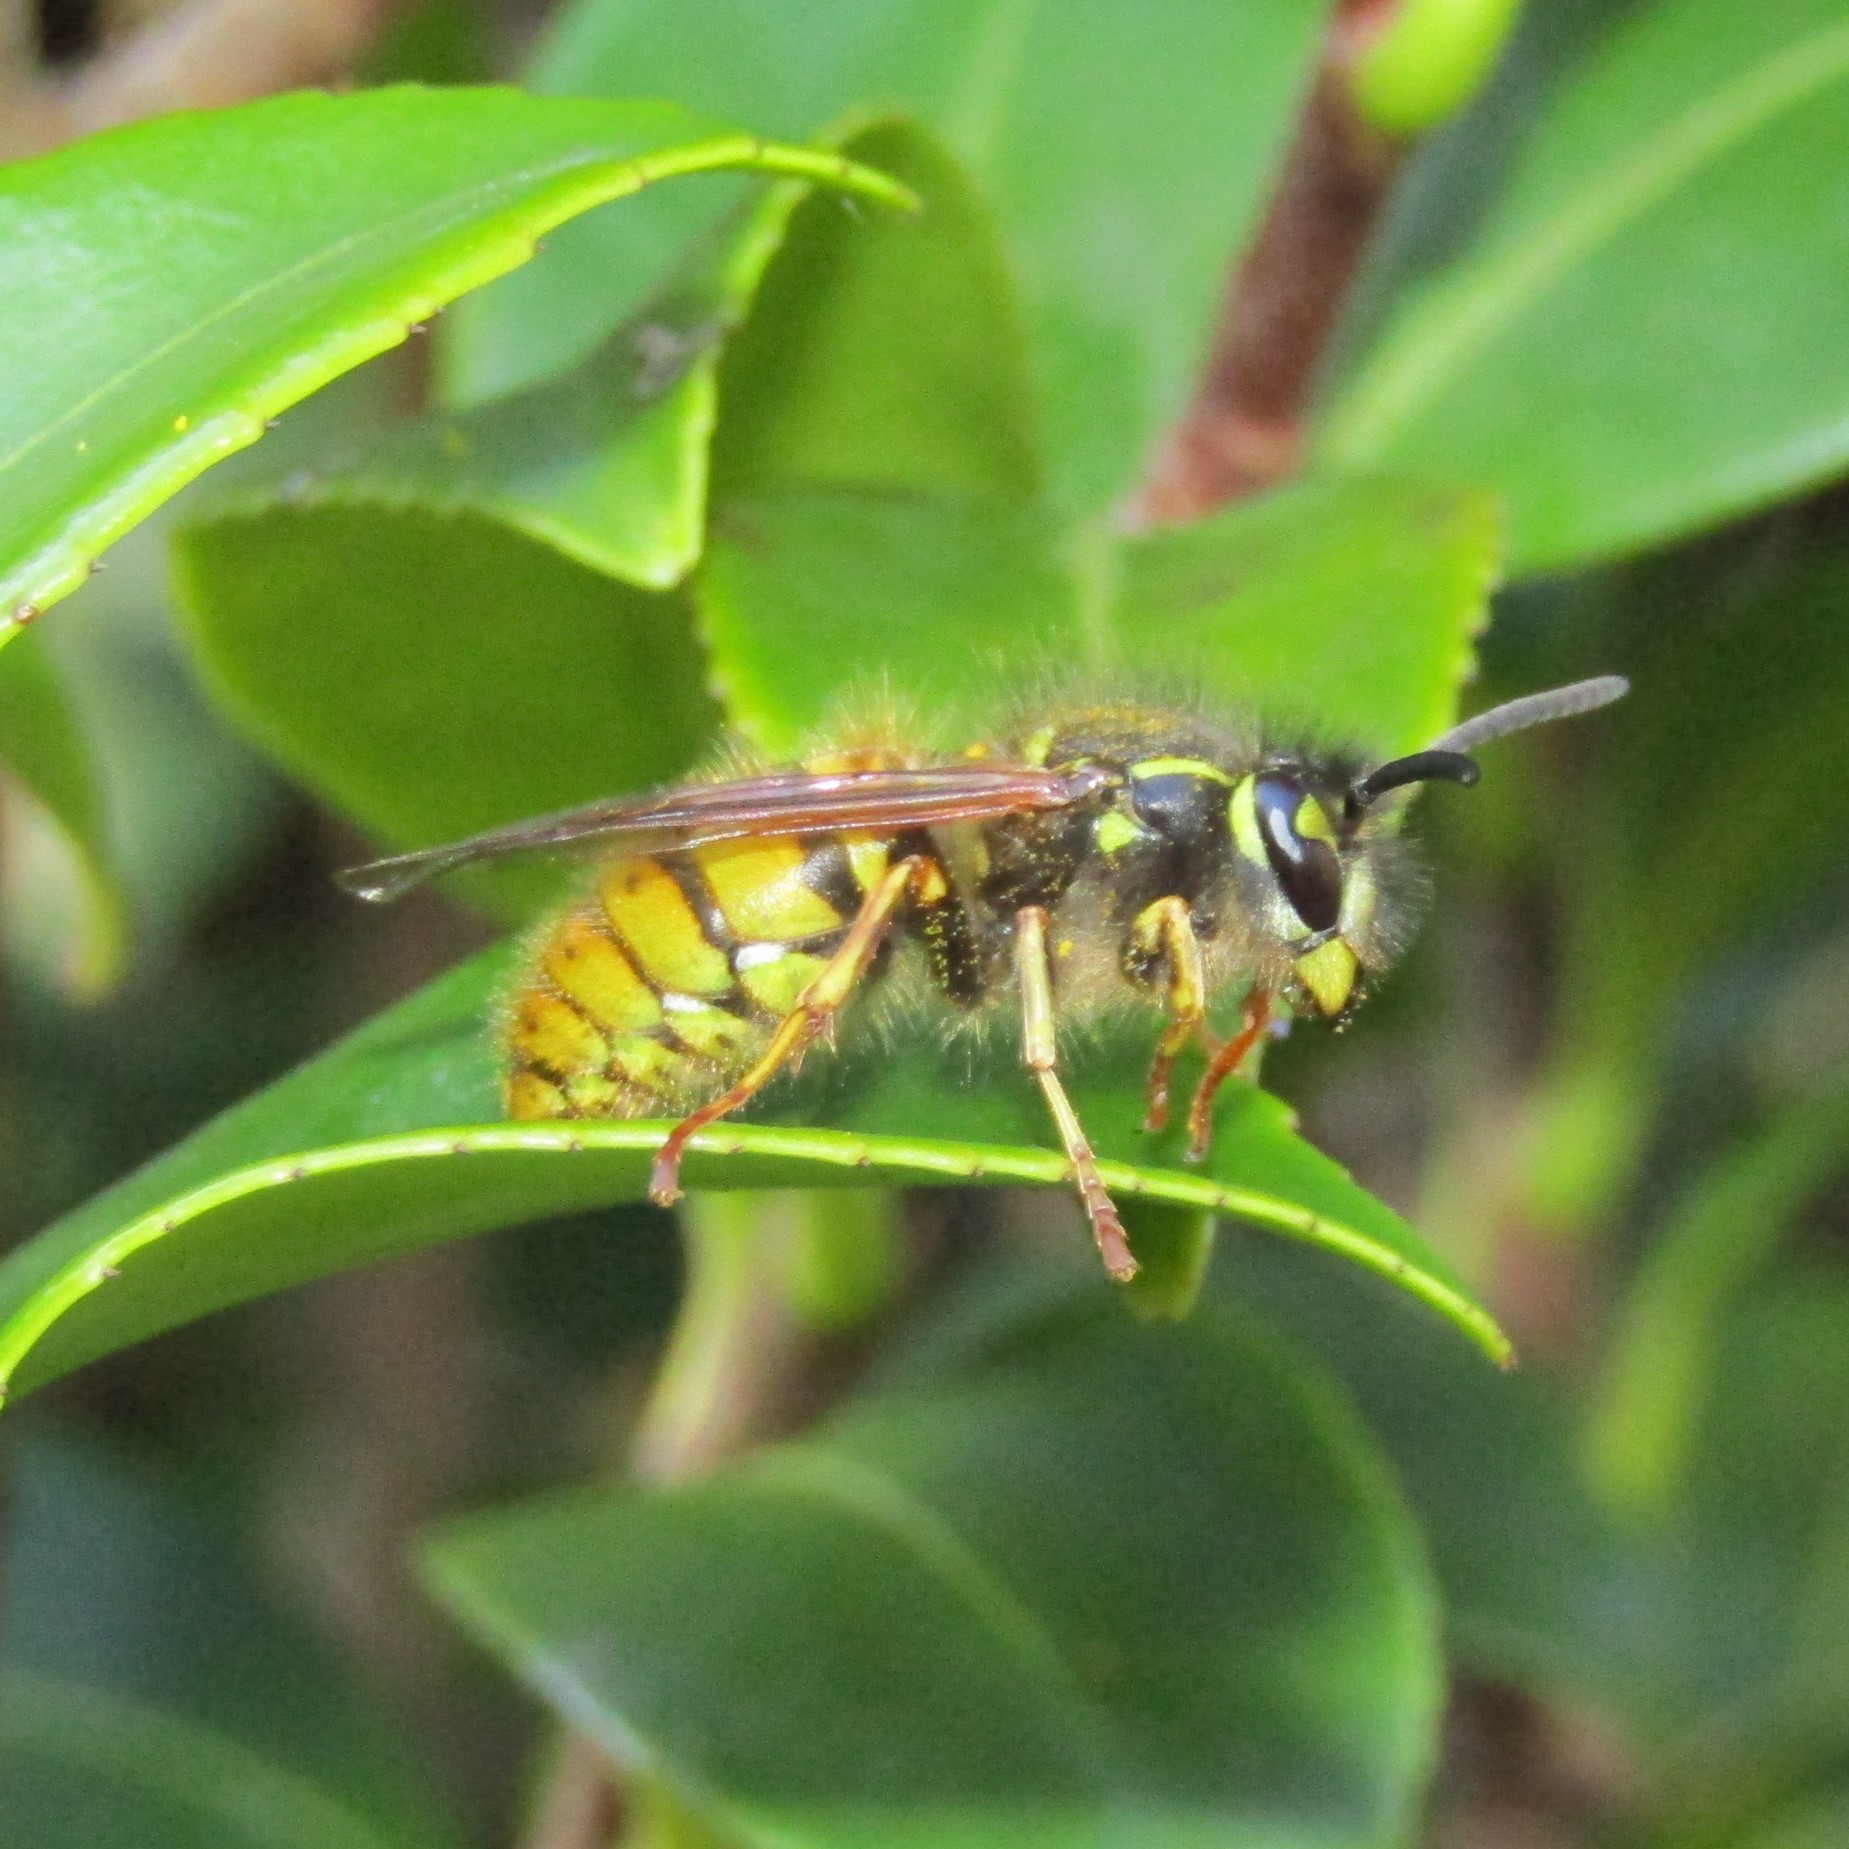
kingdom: Animalia
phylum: Arthropoda
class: Insecta
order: Hymenoptera
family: Vespidae
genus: Vespula
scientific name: Vespula vulgaris
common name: Common wasp
